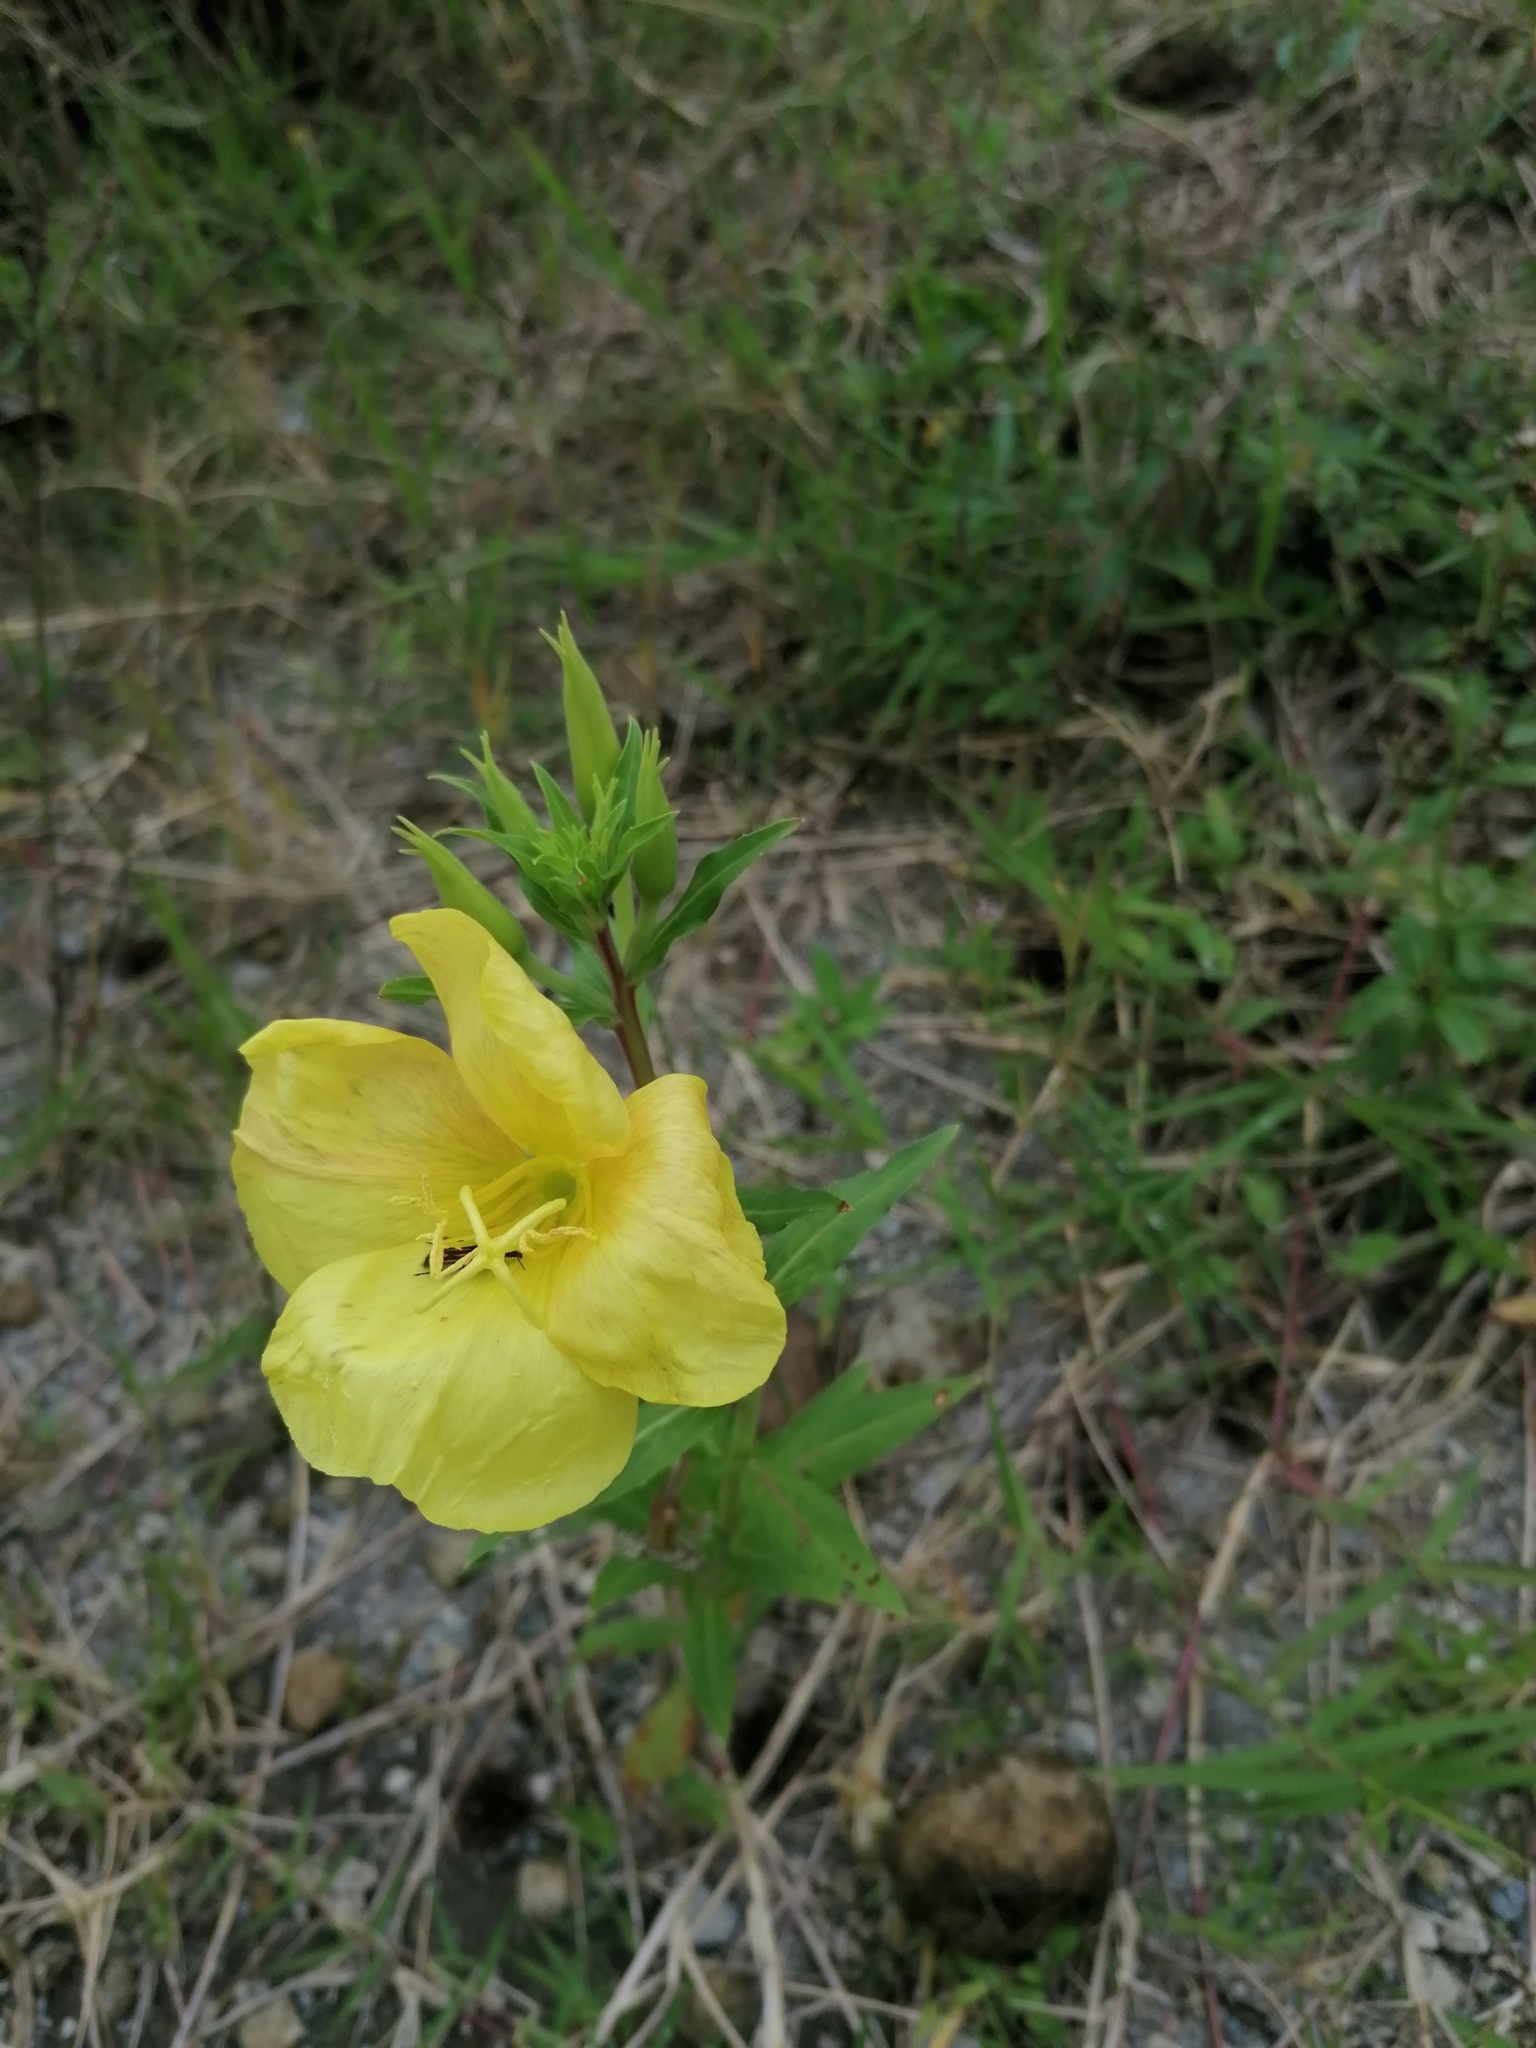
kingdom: Plantae
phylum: Tracheophyta
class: Magnoliopsida
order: Myrtales
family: Onagraceae
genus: Oenothera
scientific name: Oenothera biennis
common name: Common evening-primrose
